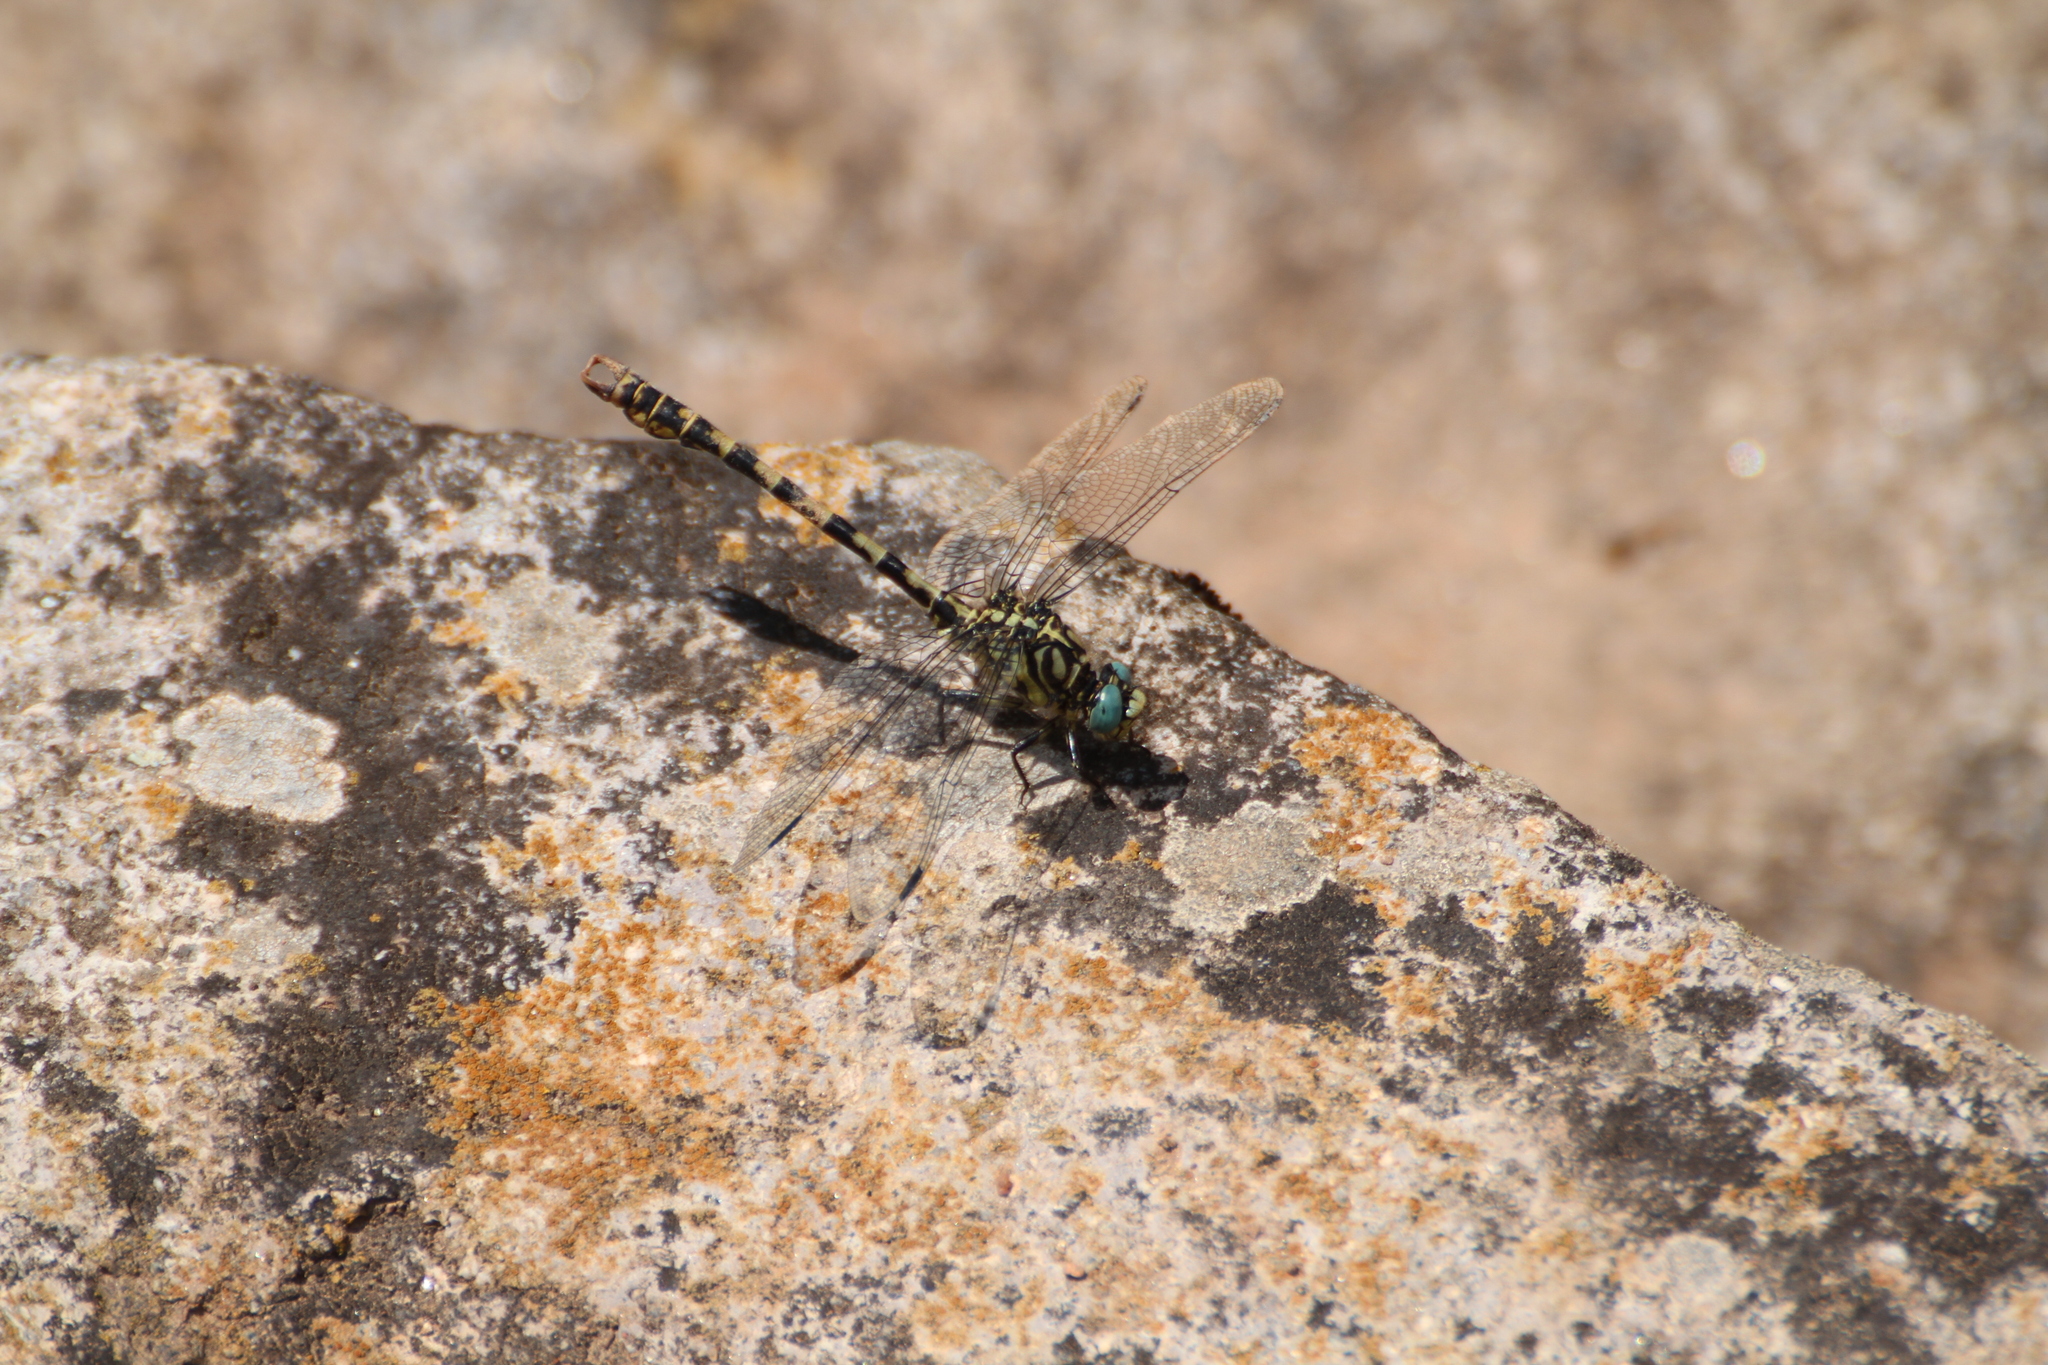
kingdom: Animalia
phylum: Arthropoda
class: Insecta
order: Odonata
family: Gomphidae
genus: Onychogomphus
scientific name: Onychogomphus forcipatus
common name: Small pincertail
